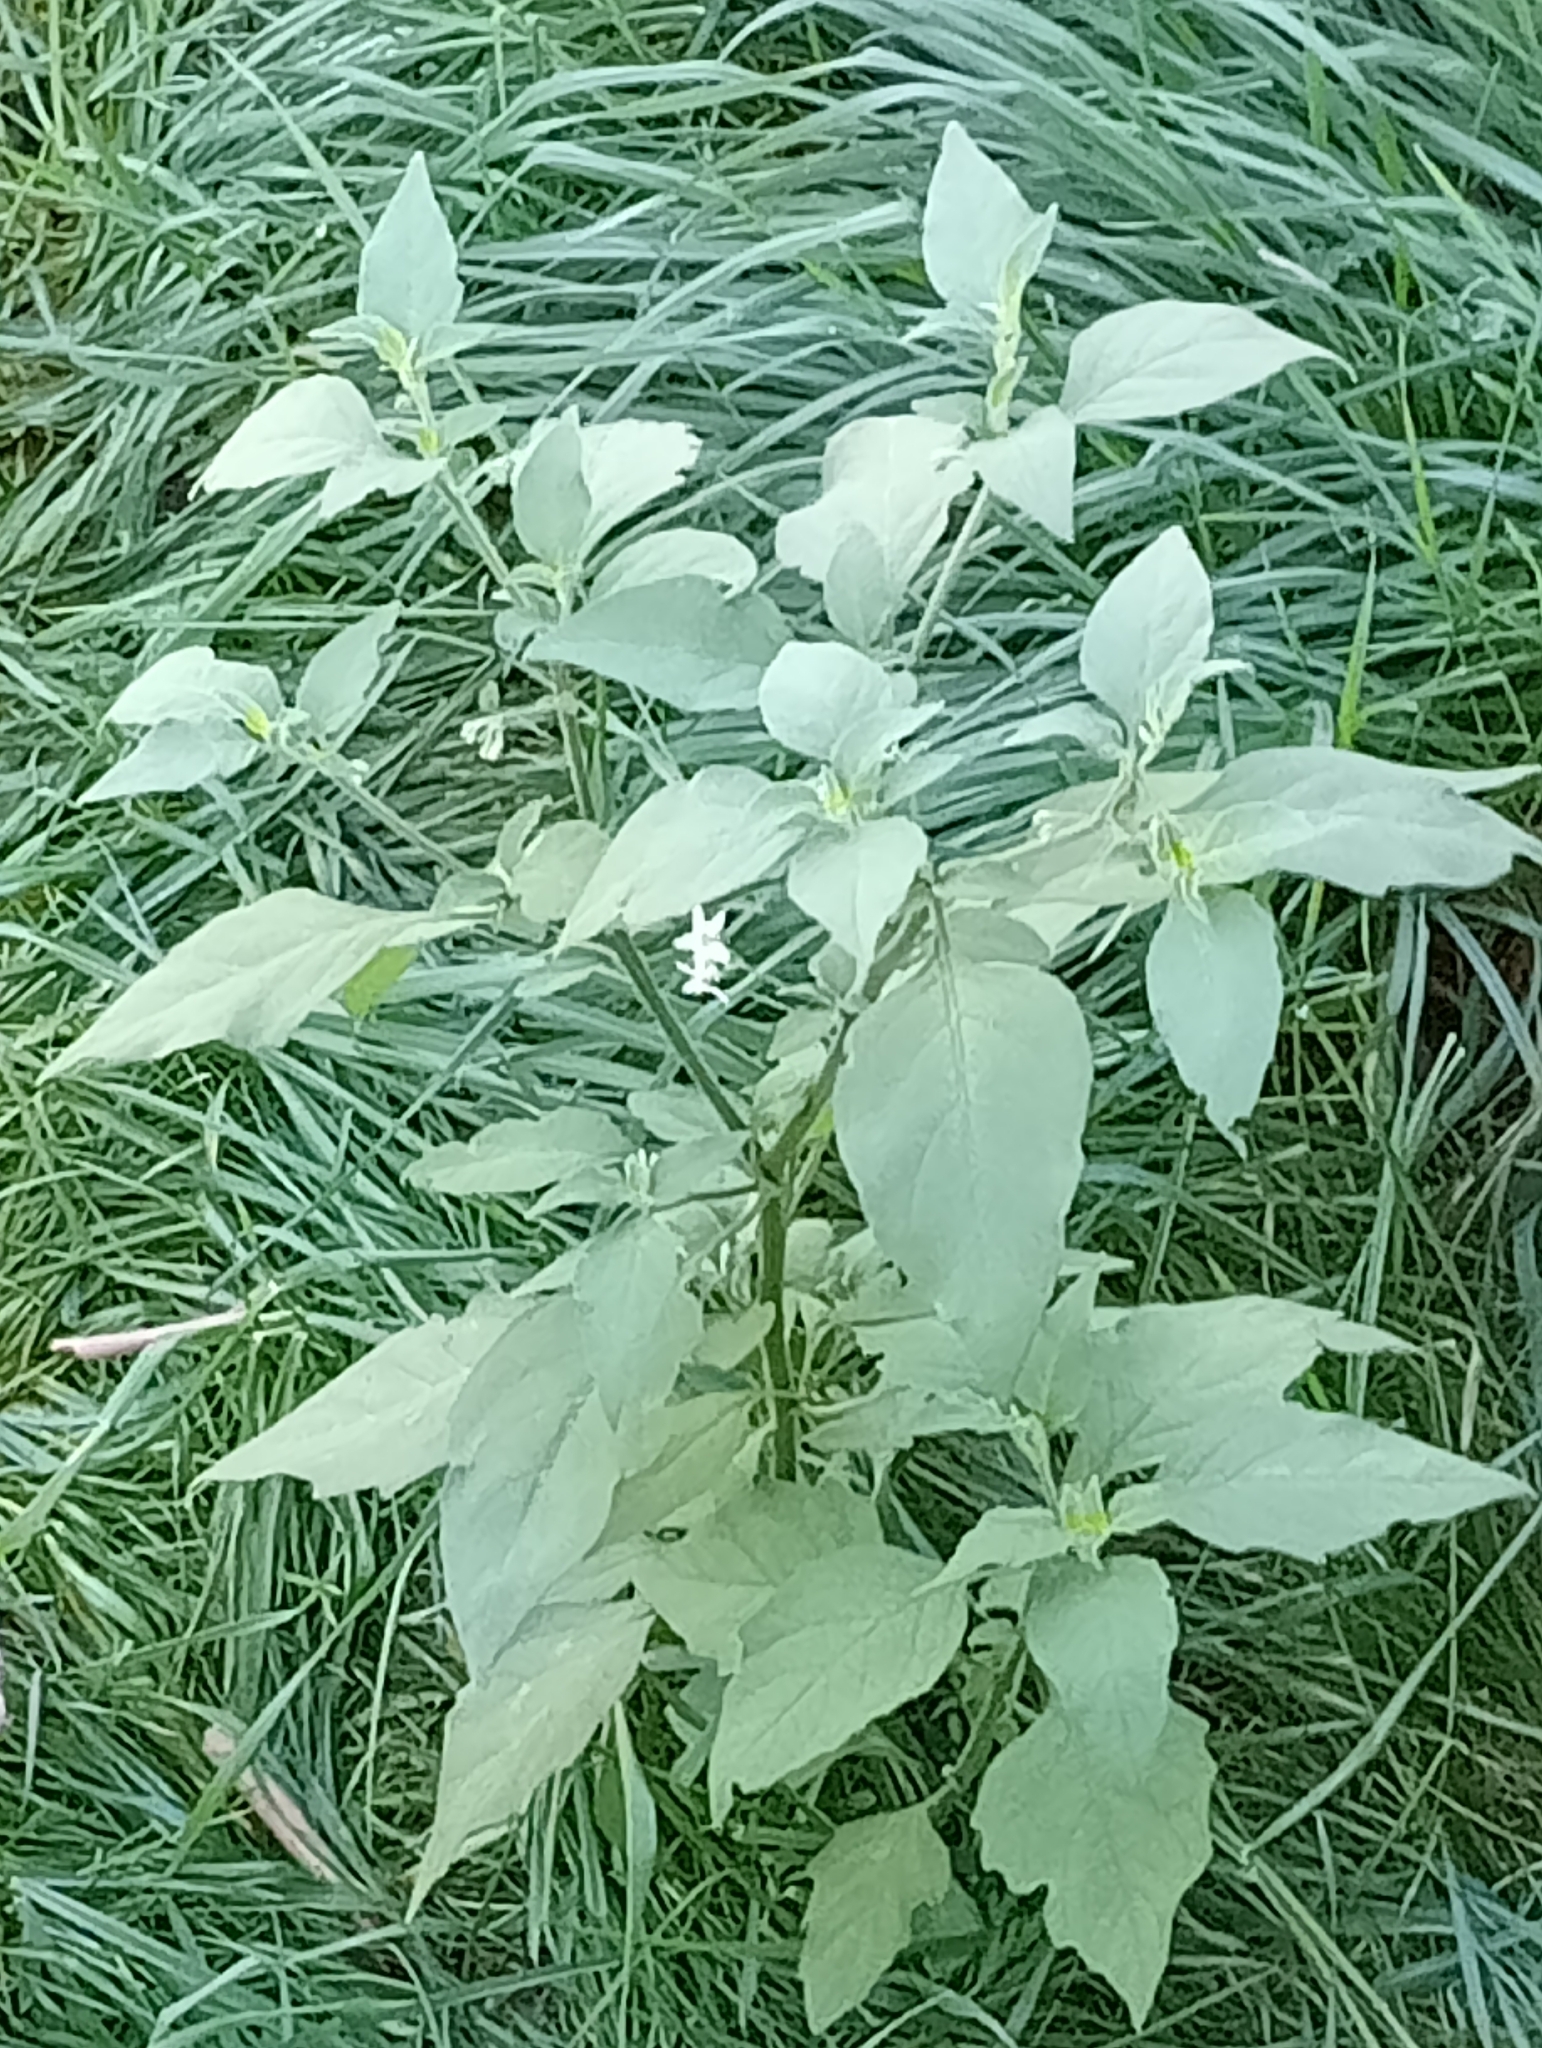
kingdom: Plantae
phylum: Tracheophyta
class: Magnoliopsida
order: Solanales
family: Solanaceae
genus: Solanum
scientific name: Solanum chenopodioides
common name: Tall nightshade
